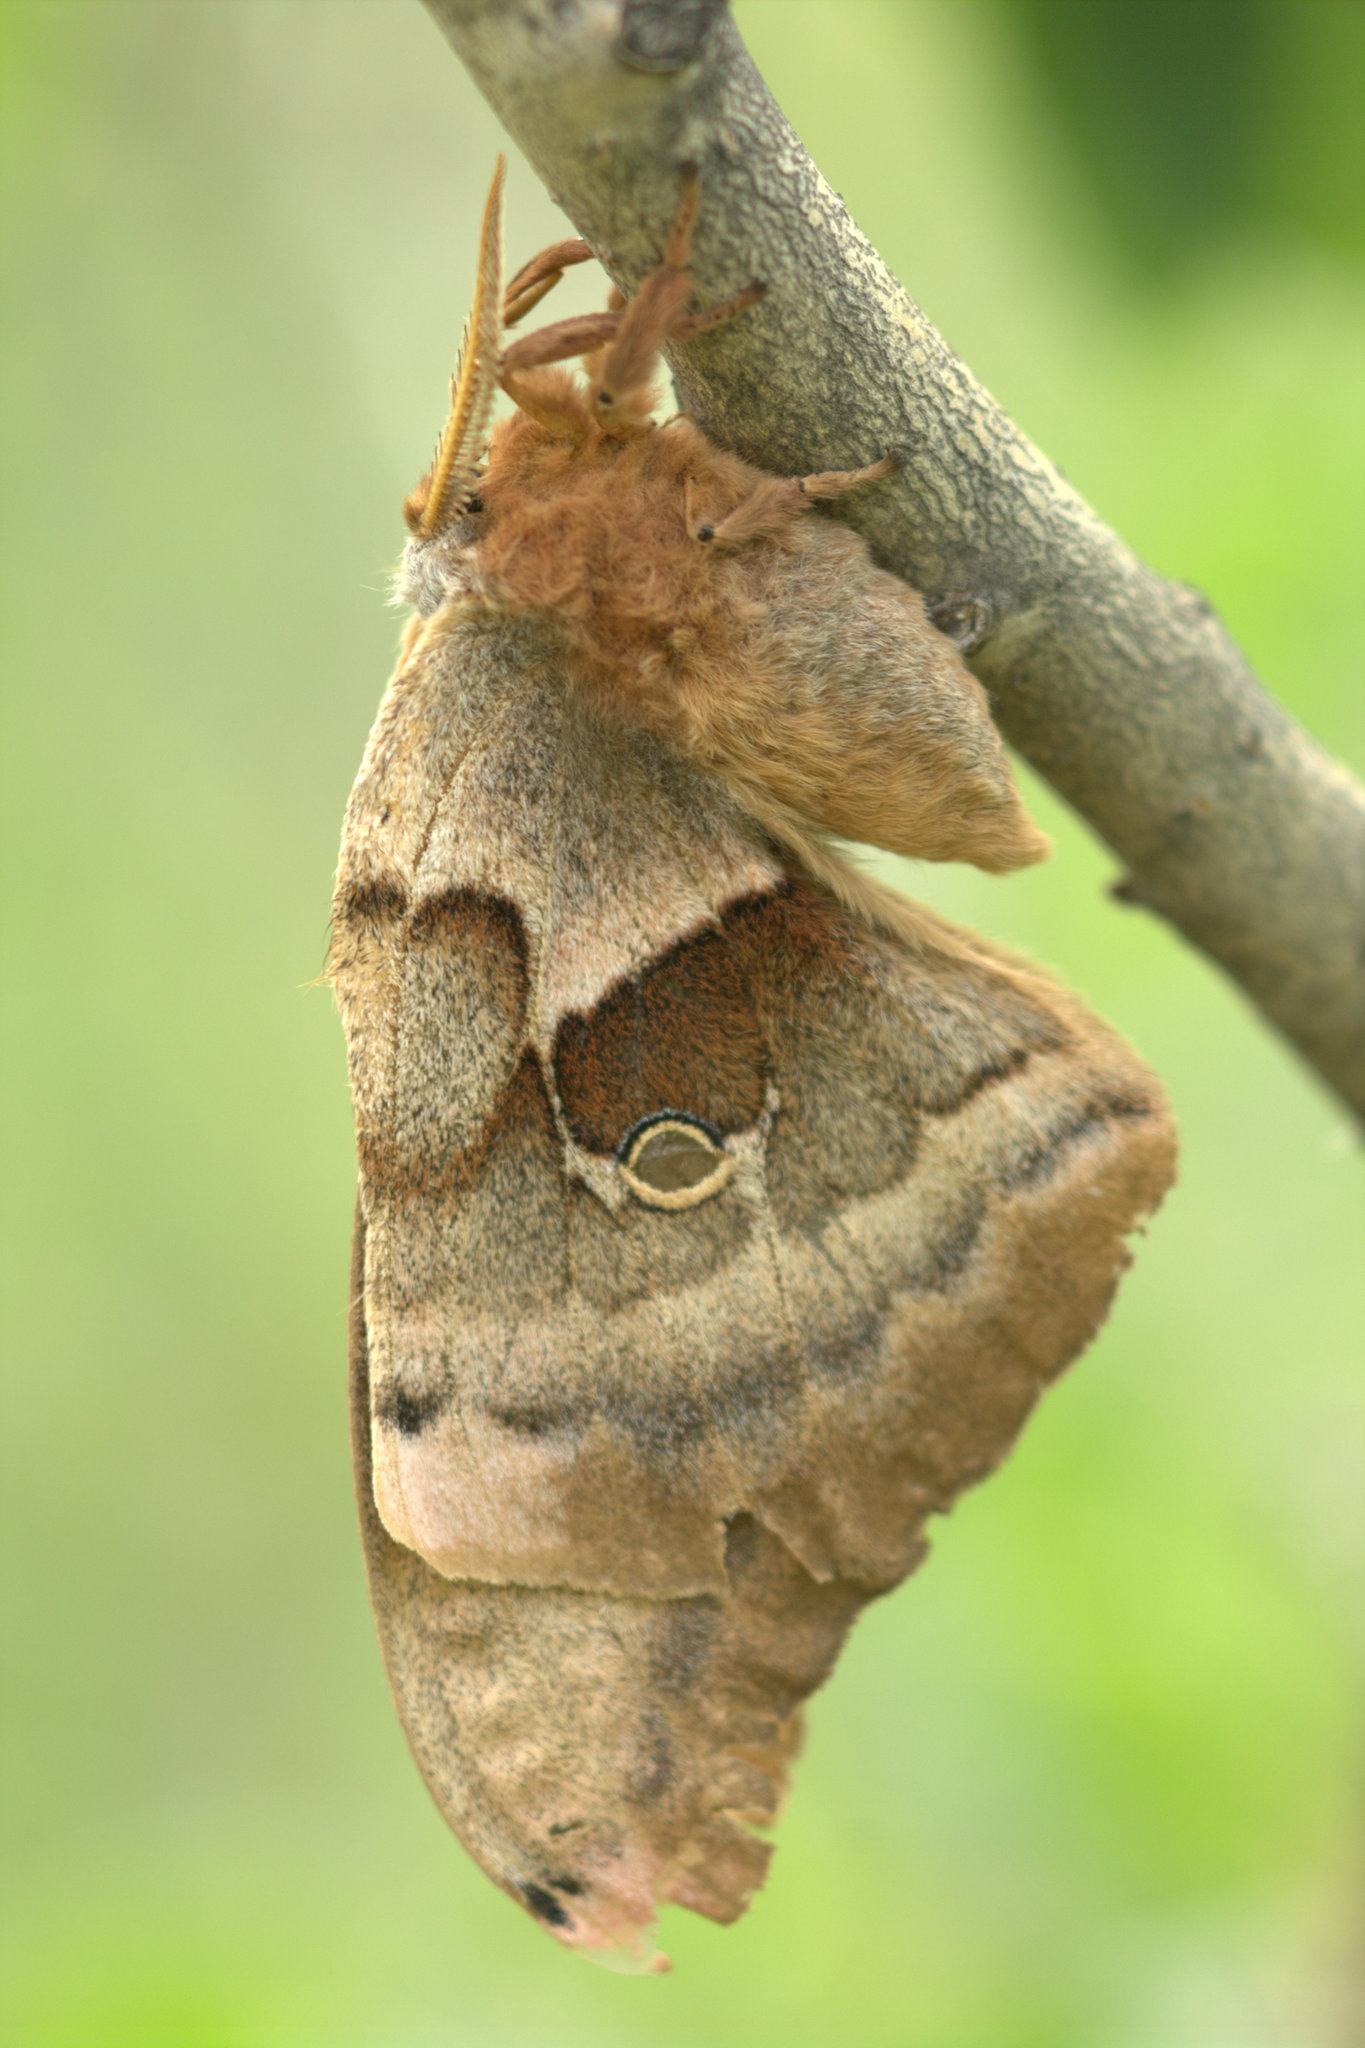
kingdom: Animalia
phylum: Arthropoda
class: Insecta
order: Lepidoptera
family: Saturniidae
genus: Antheraea
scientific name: Antheraea polyphemus
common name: Polyphemus moth
